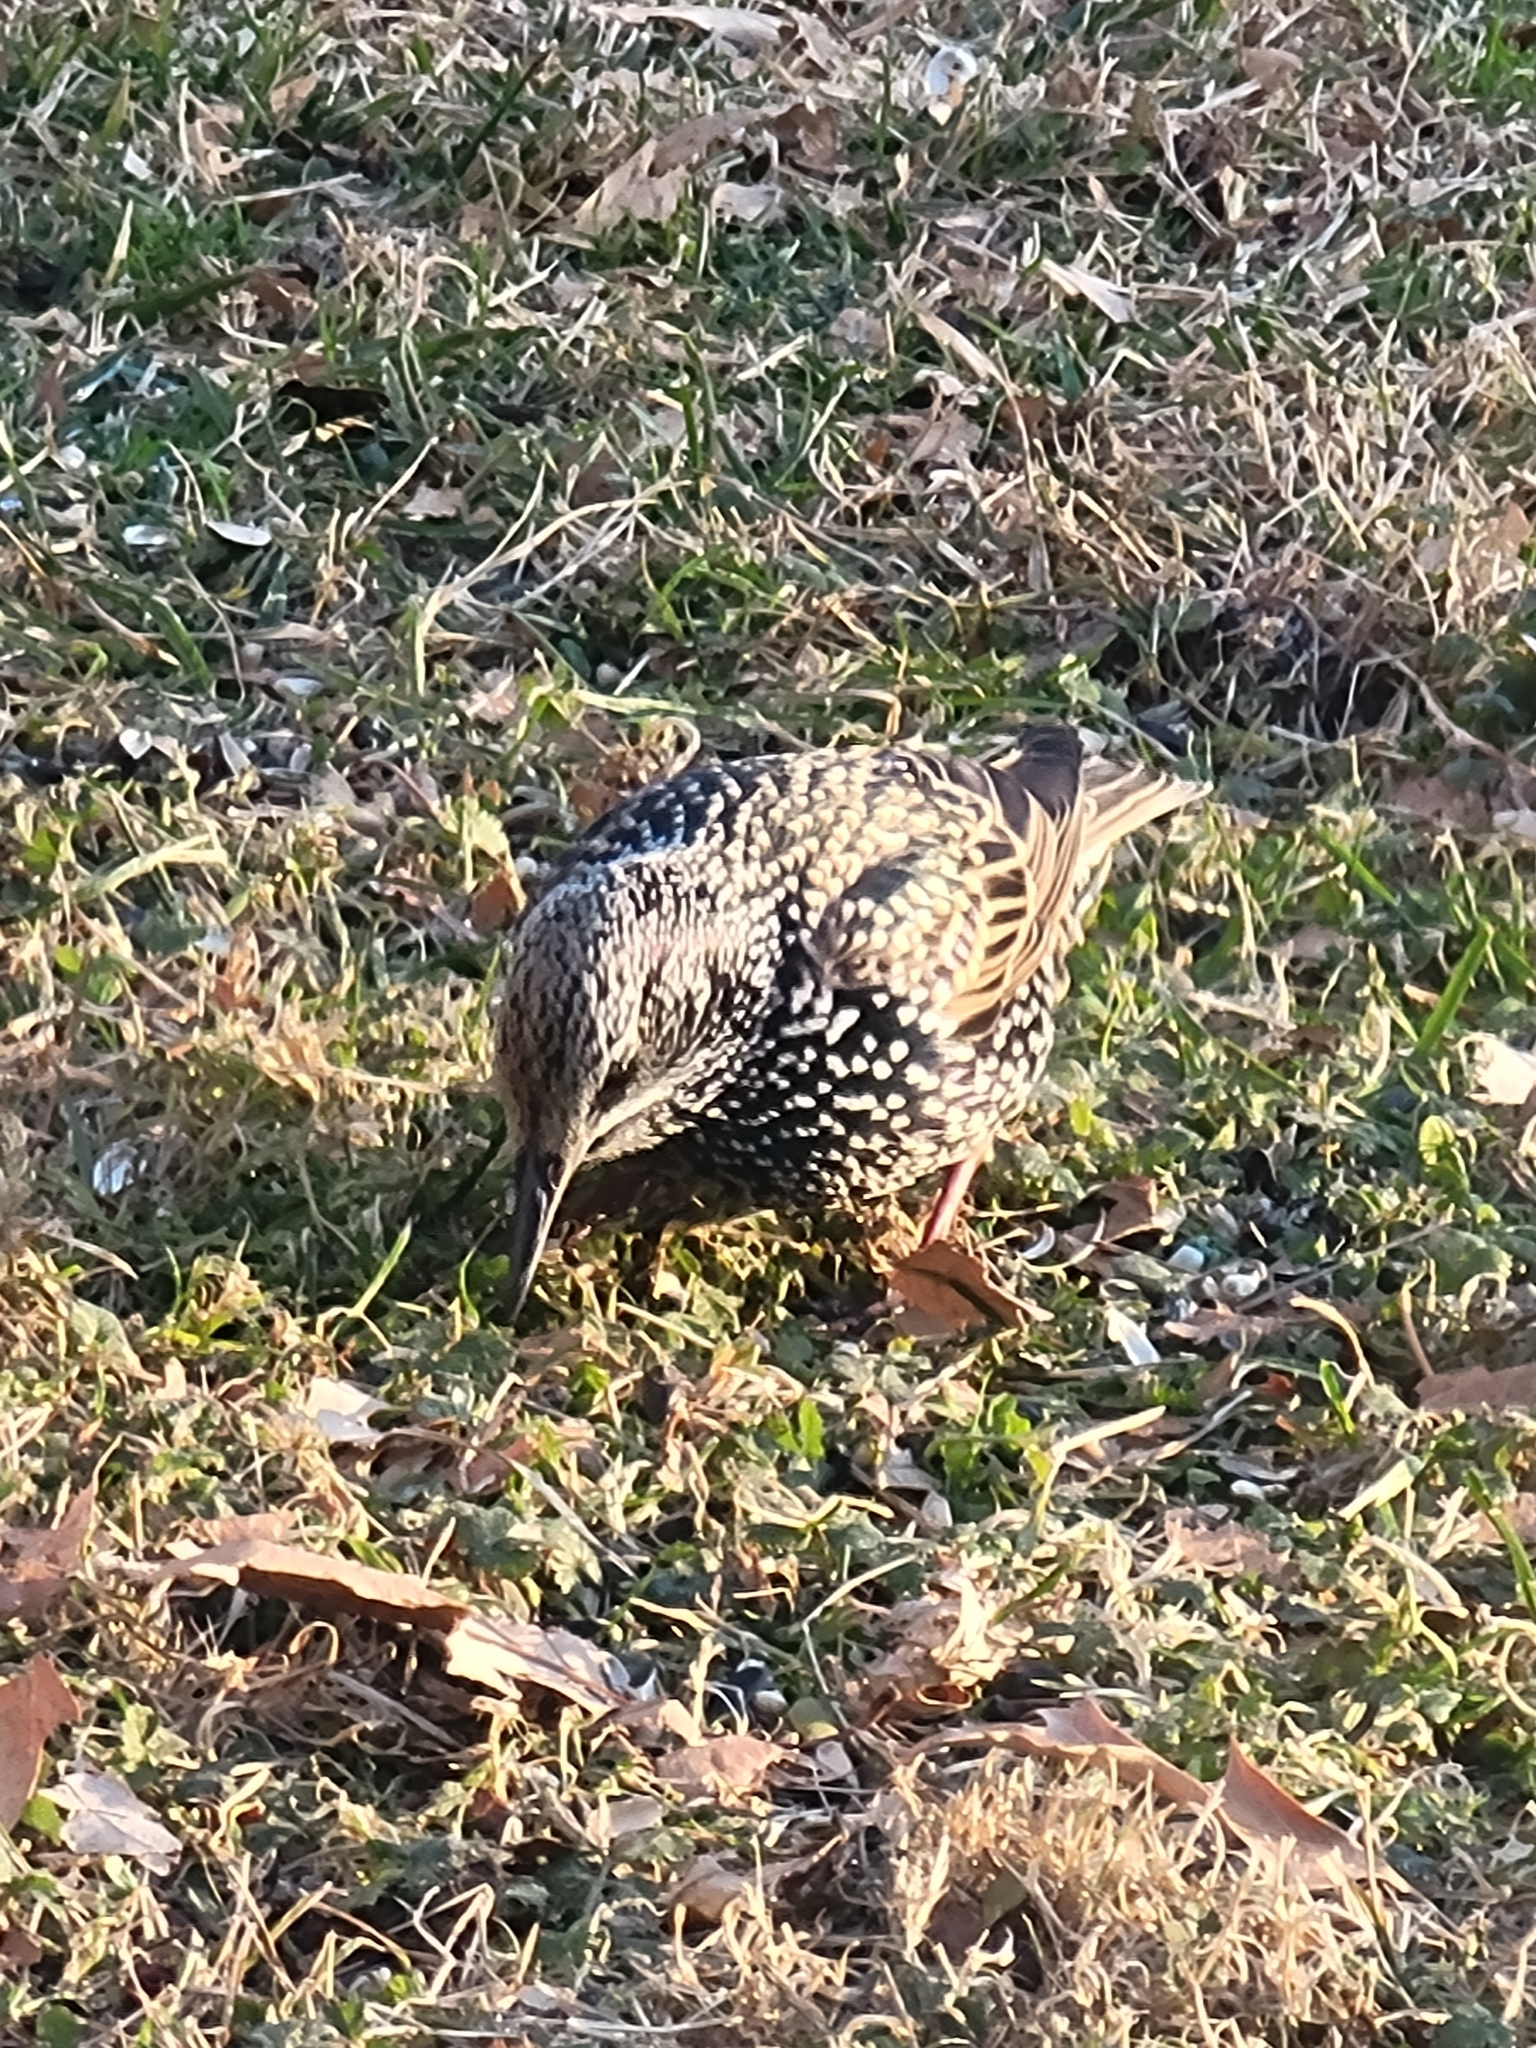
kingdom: Animalia
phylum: Chordata
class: Aves
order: Passeriformes
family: Sturnidae
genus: Sturnus
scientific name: Sturnus vulgaris
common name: Common starling
